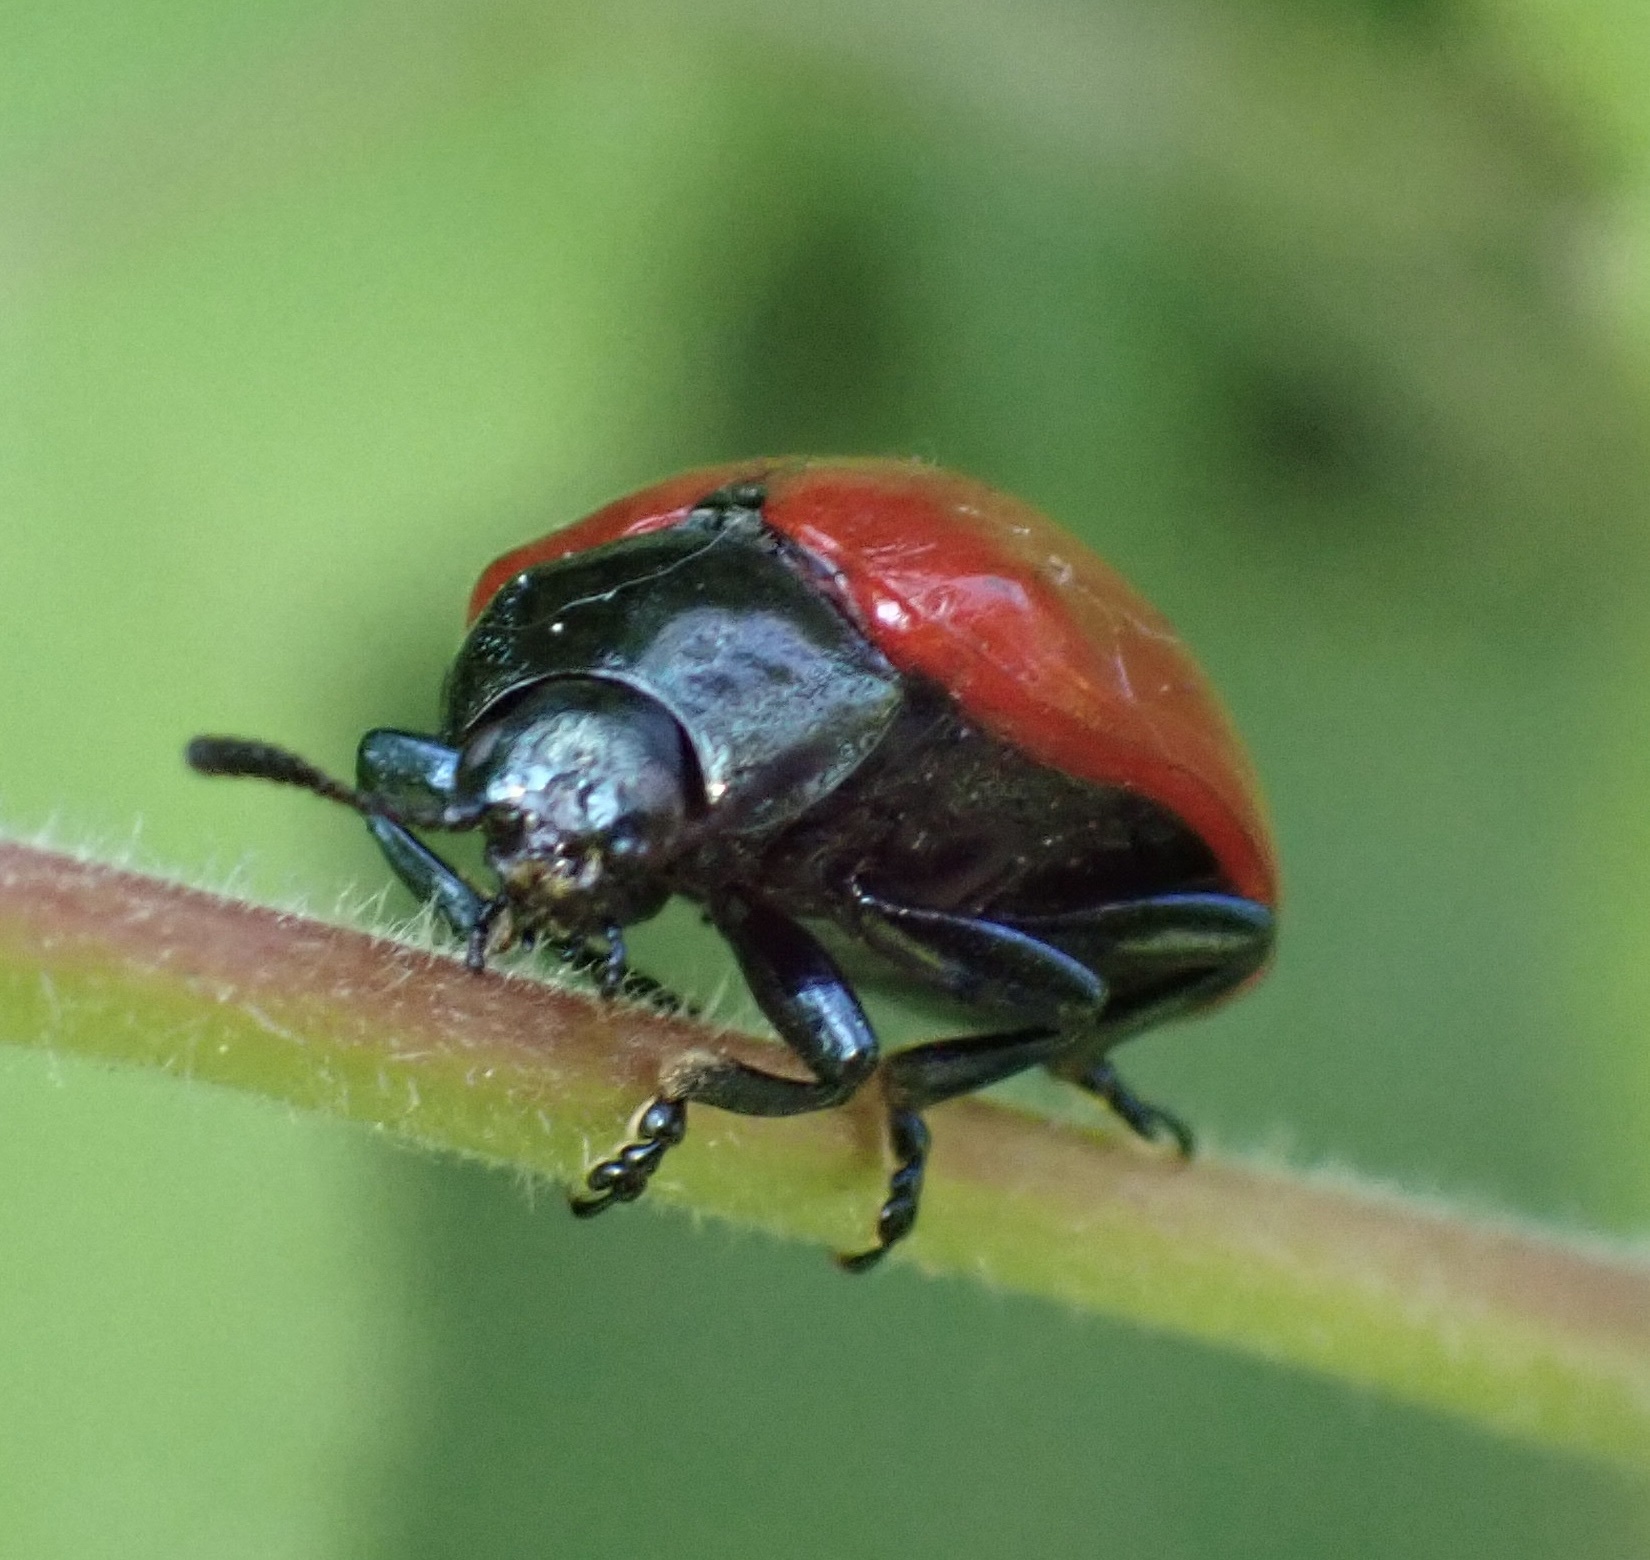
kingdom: Animalia
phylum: Arthropoda
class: Insecta
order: Coleoptera
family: Chrysomelidae
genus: Chrysomela
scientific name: Chrysomela populi
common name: Red poplar leaf beetle
